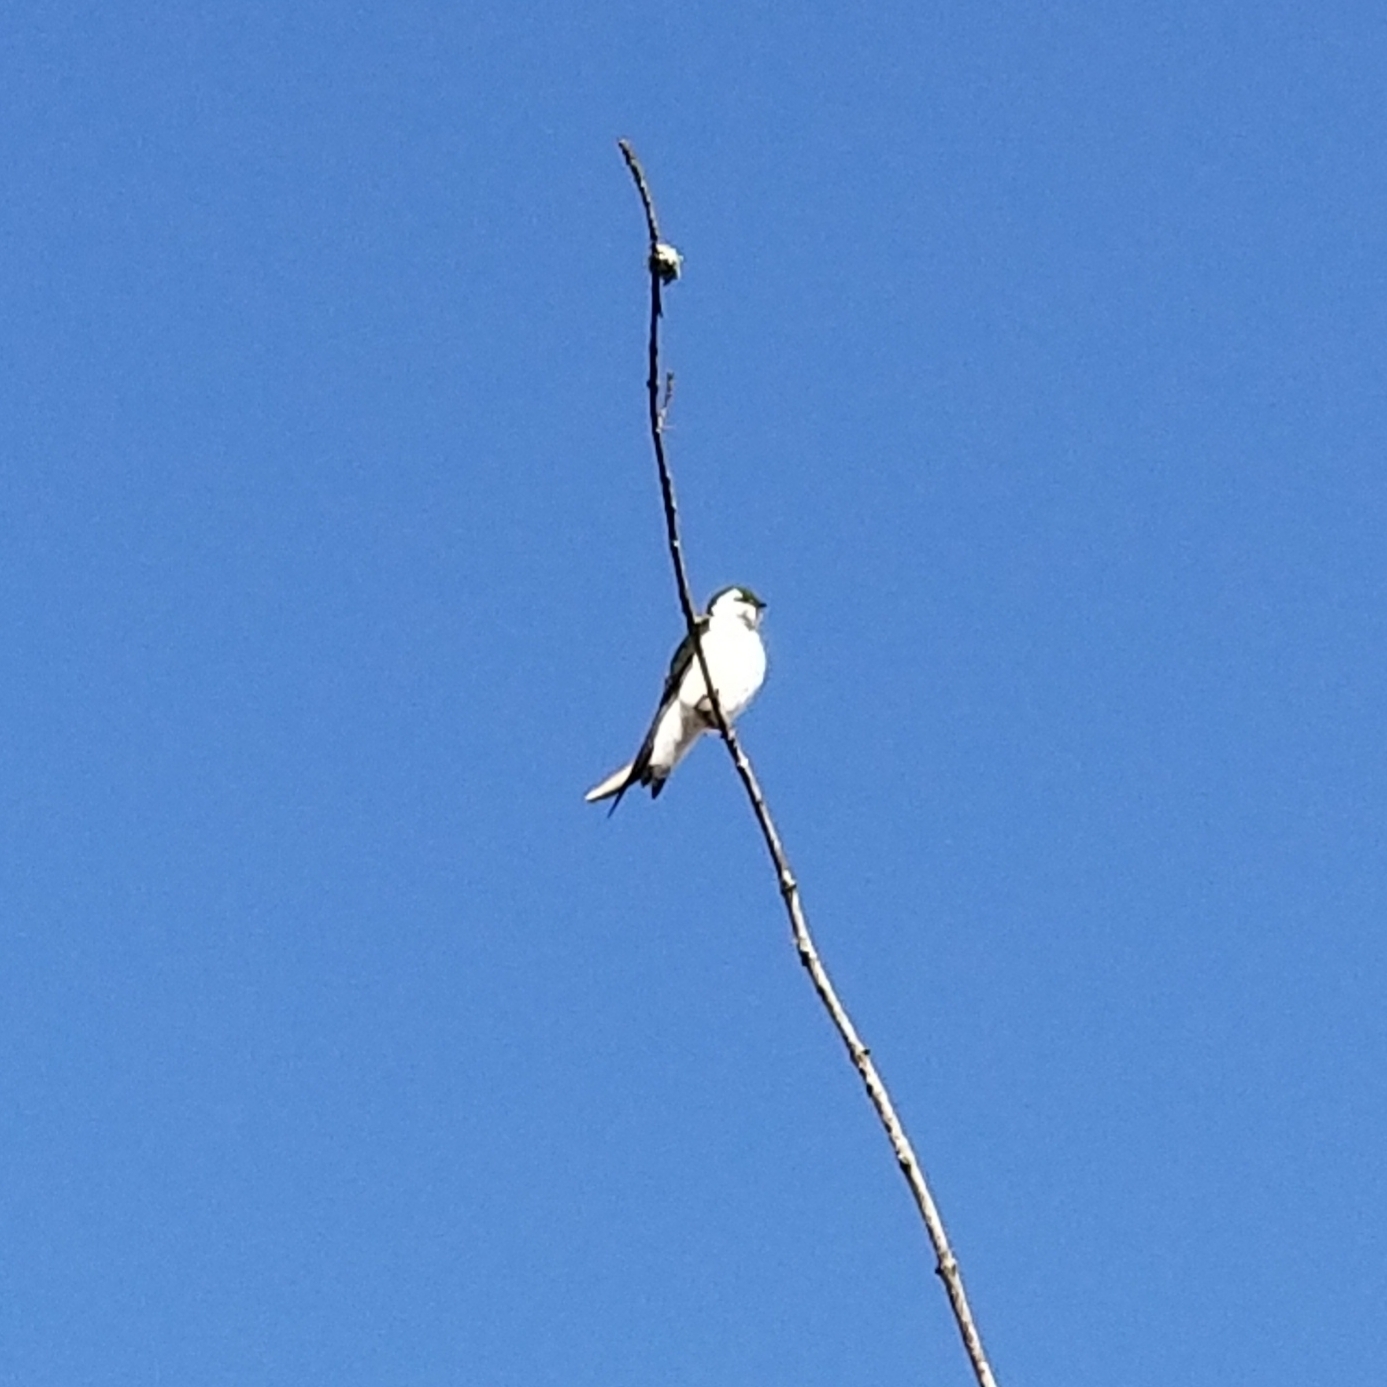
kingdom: Animalia
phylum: Chordata
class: Aves
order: Passeriformes
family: Hirundinidae
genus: Tachycineta
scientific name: Tachycineta thalassina
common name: Violet-green swallow
